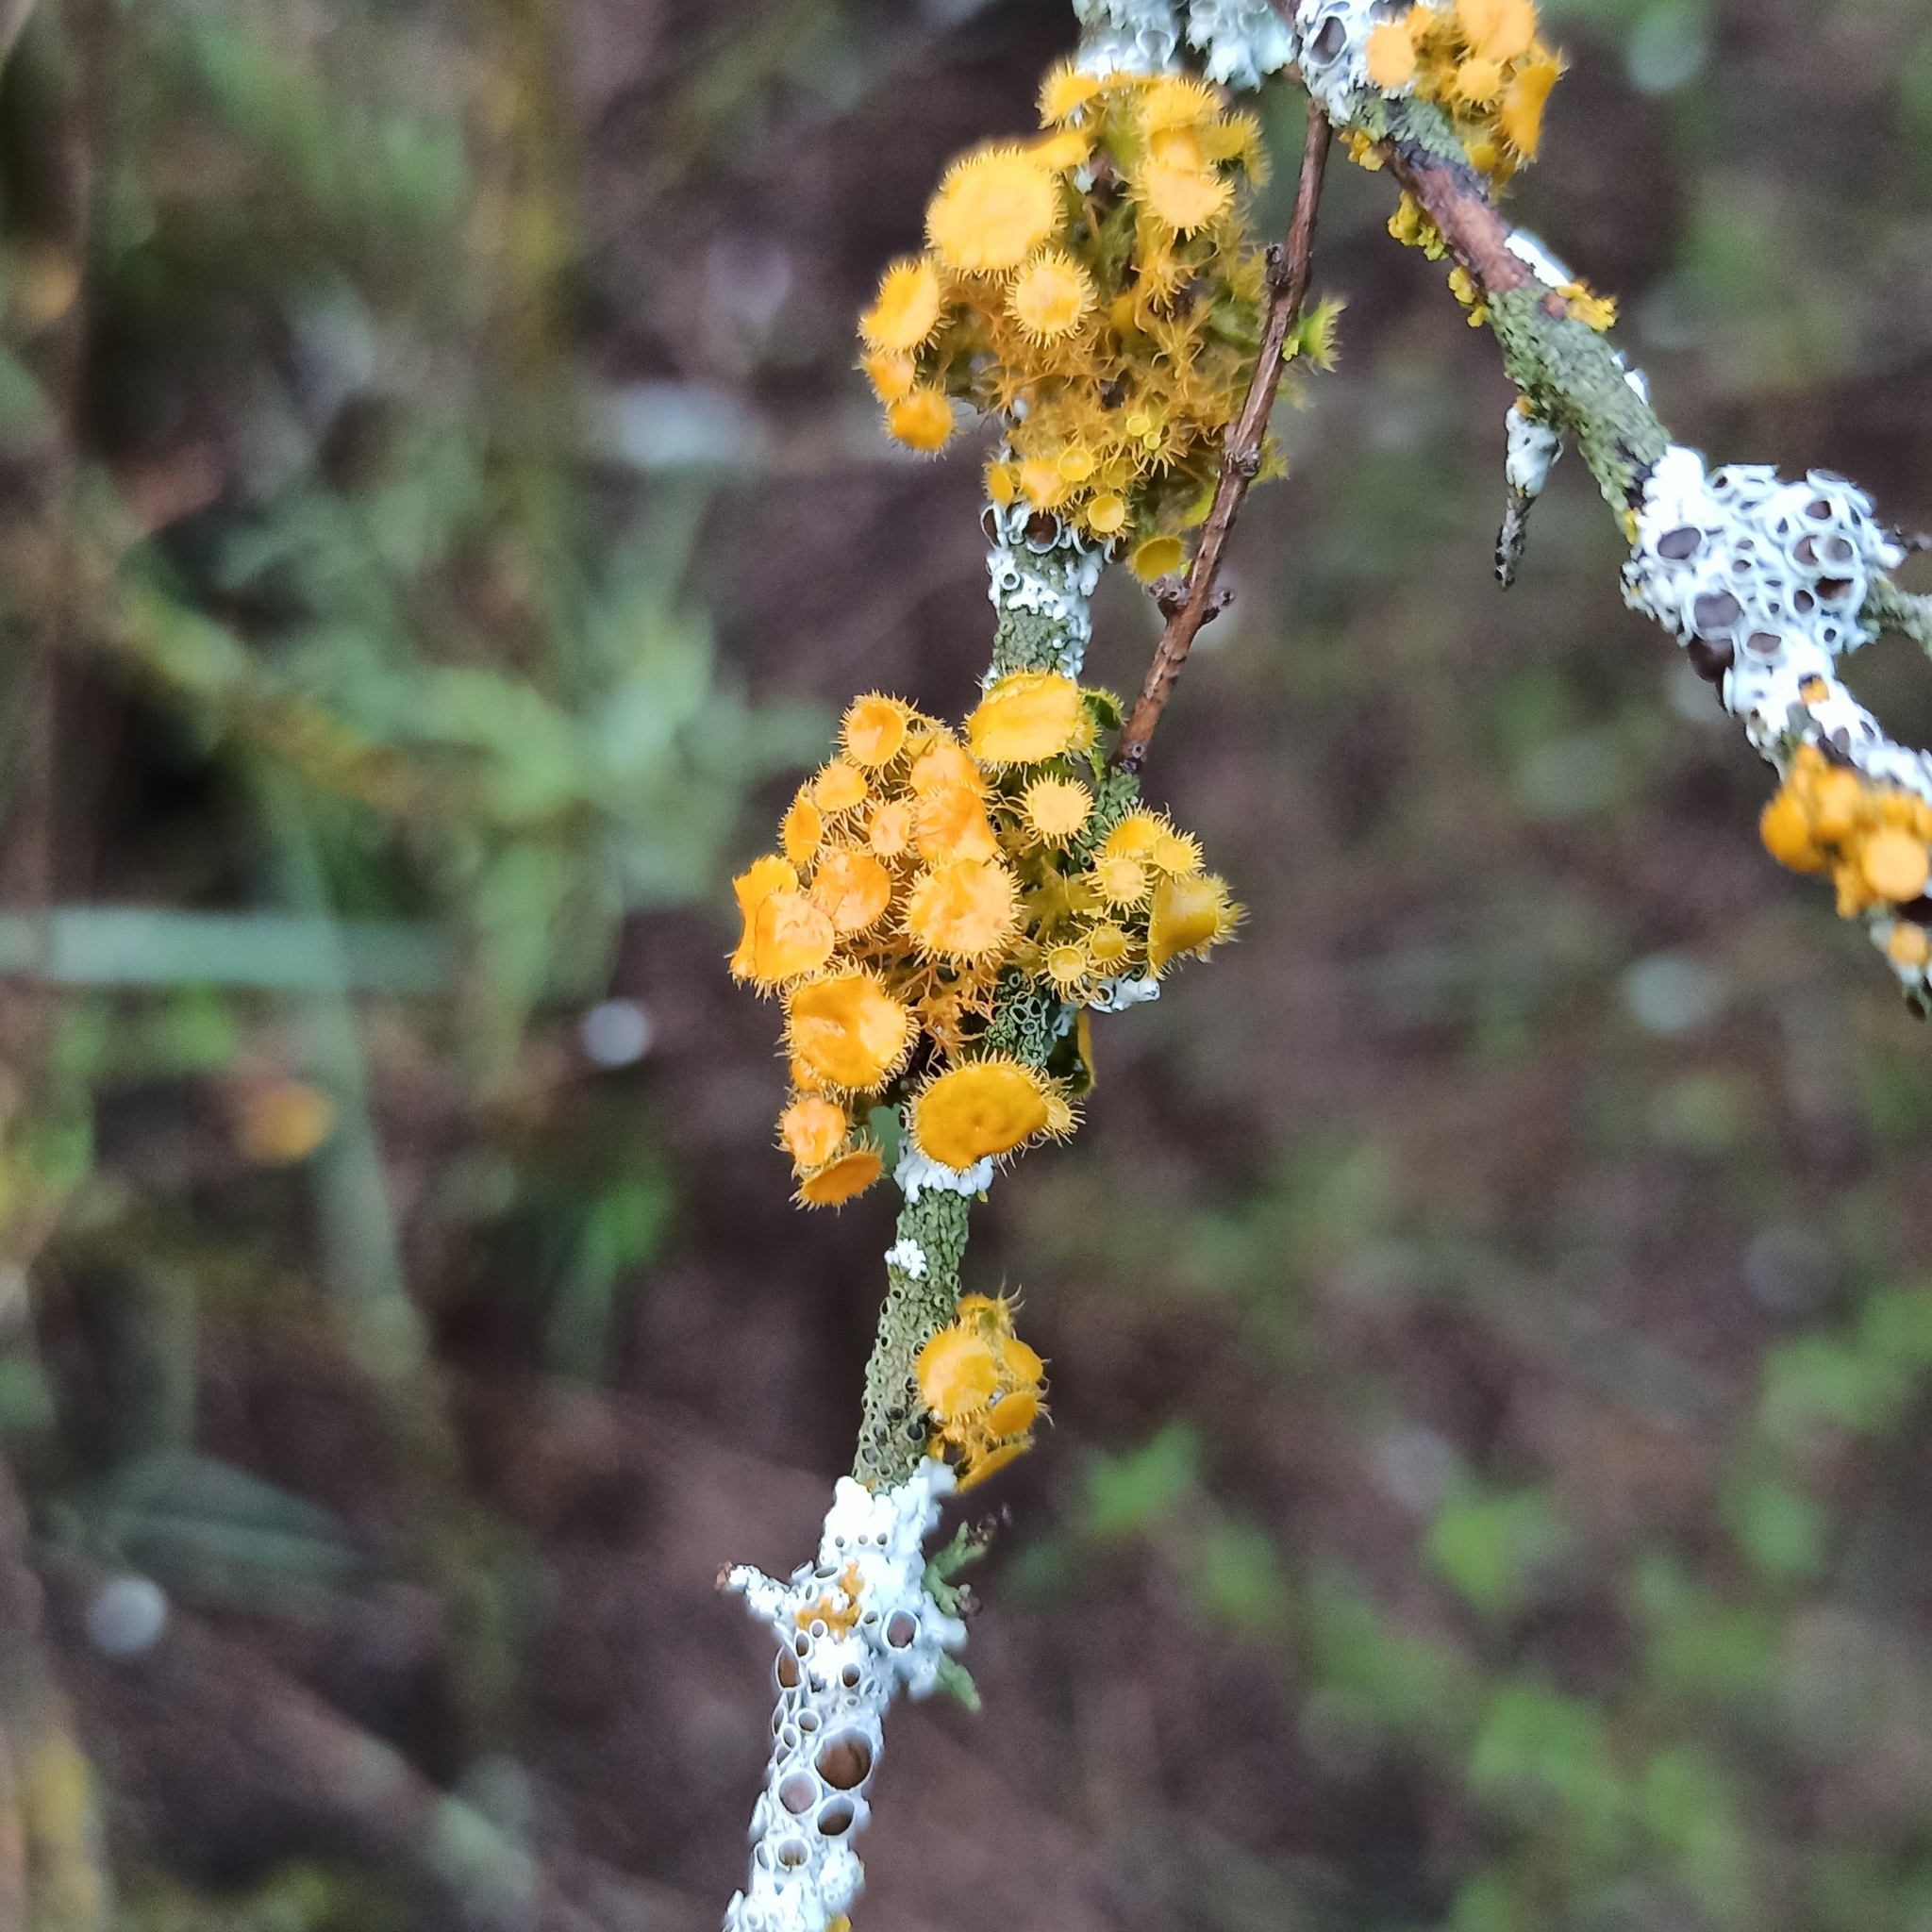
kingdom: Fungi
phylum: Ascomycota
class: Lecanoromycetes
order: Teloschistales
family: Teloschistaceae
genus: Niorma
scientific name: Niorma chrysophthalma
